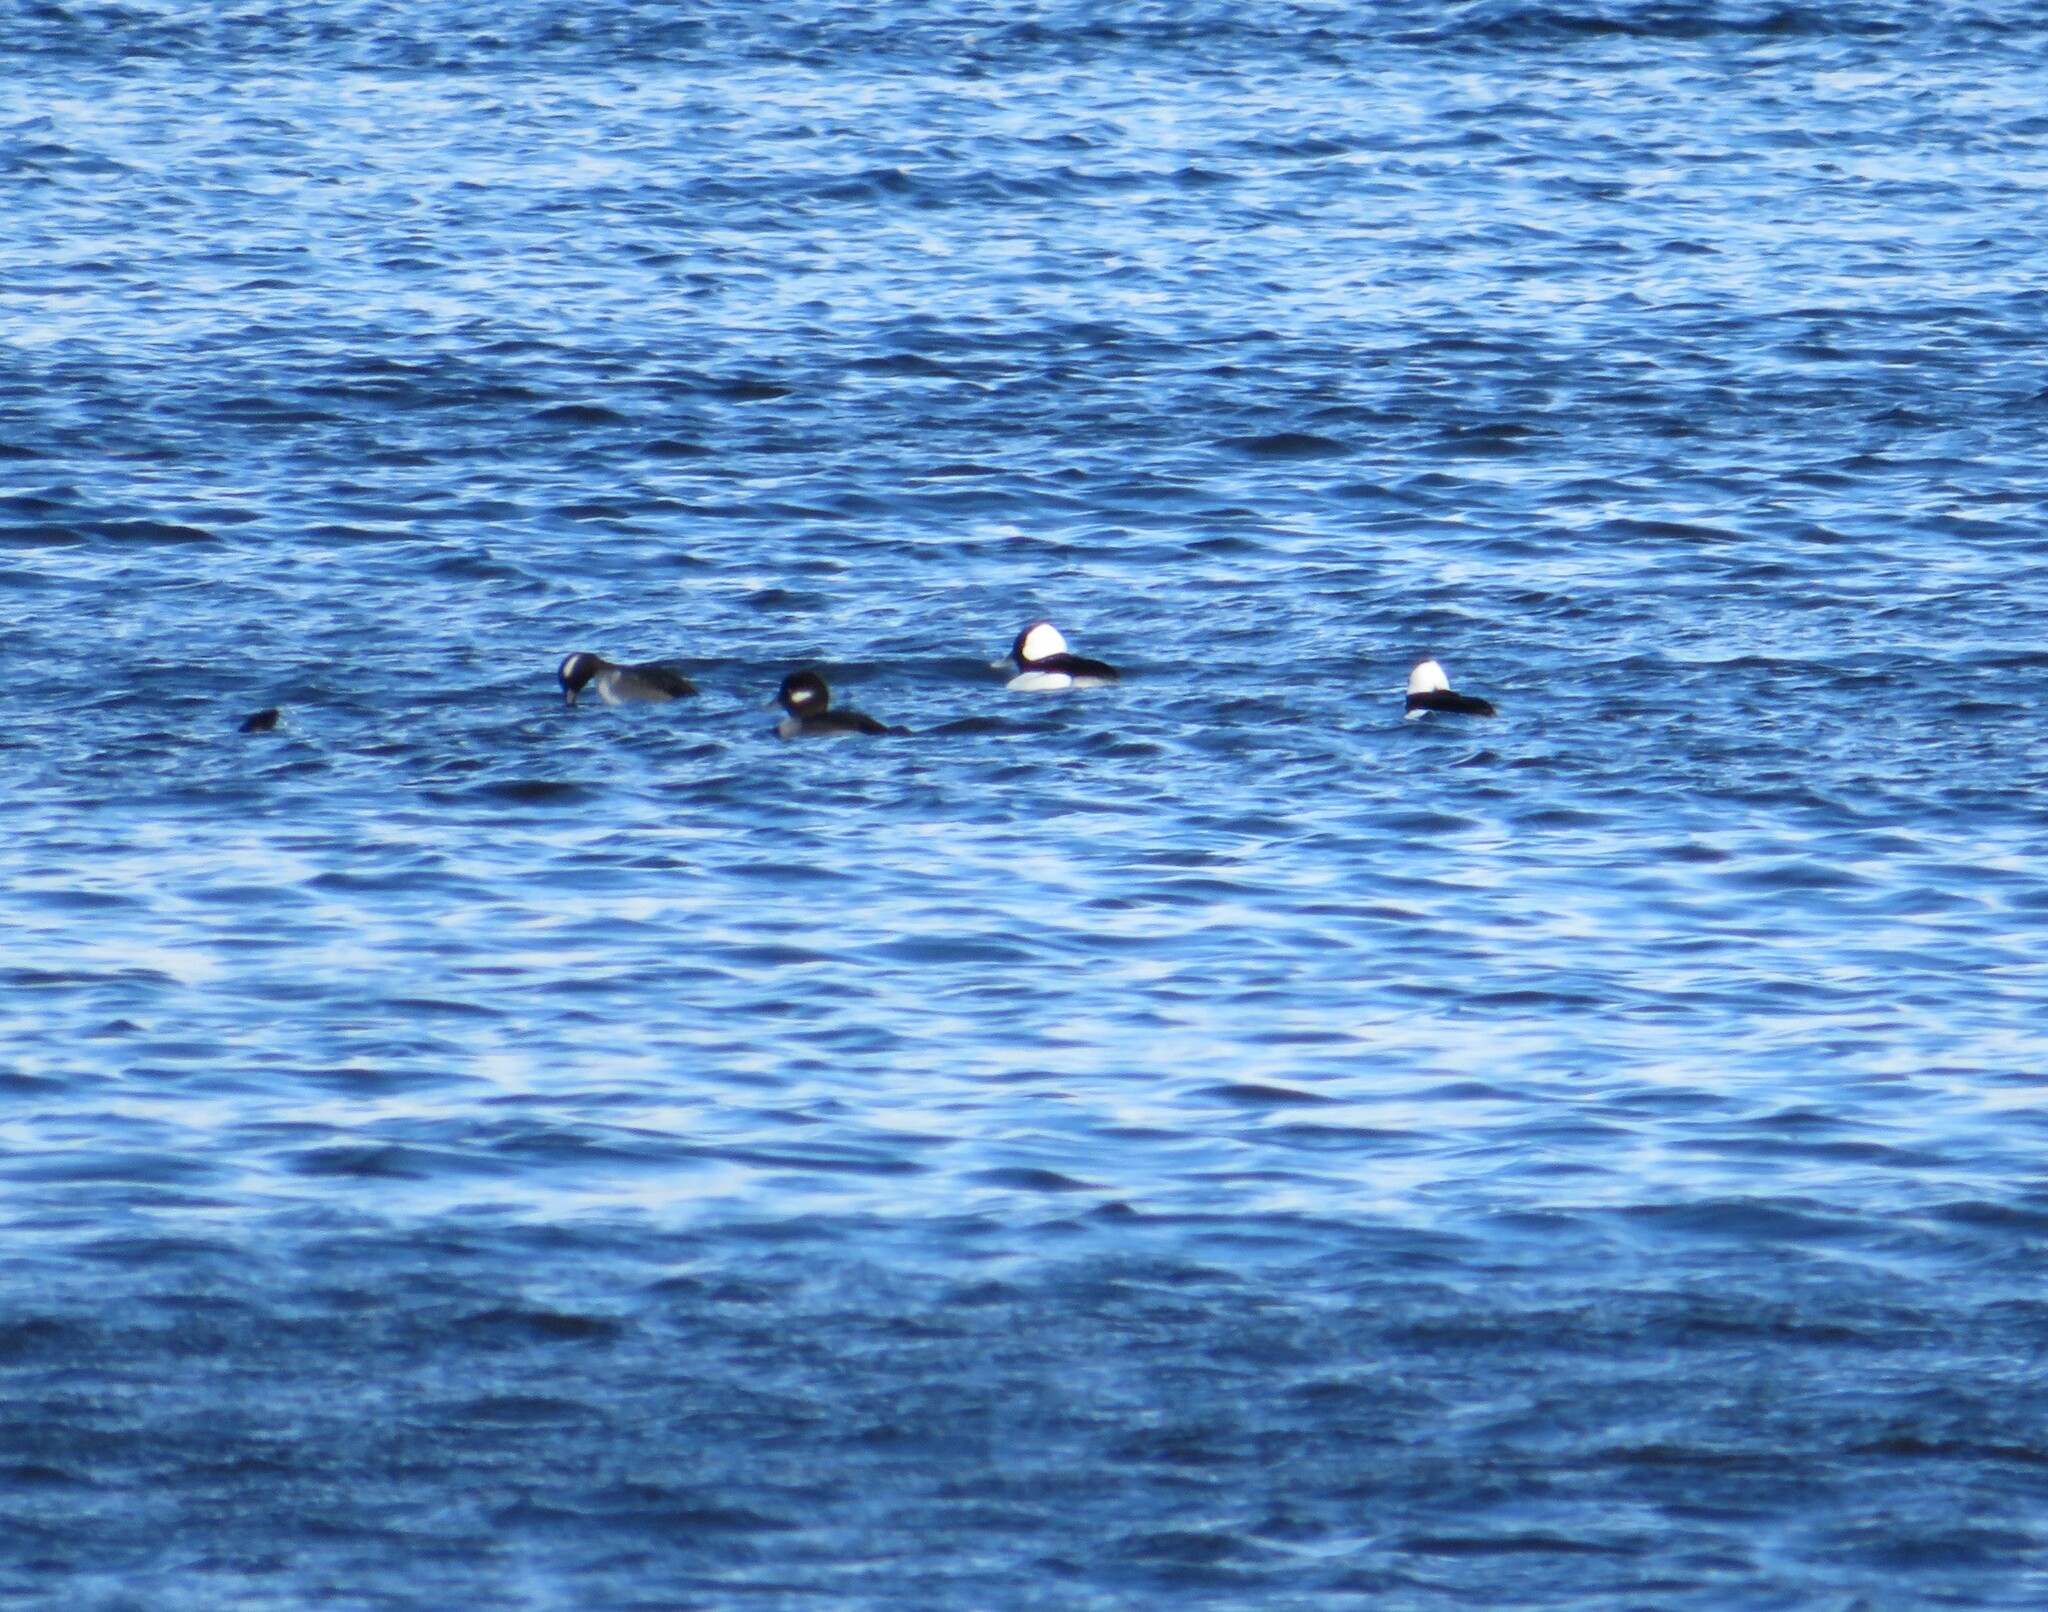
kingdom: Animalia
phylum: Chordata
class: Aves
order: Anseriformes
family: Anatidae
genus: Bucephala
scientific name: Bucephala albeola
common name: Bufflehead
